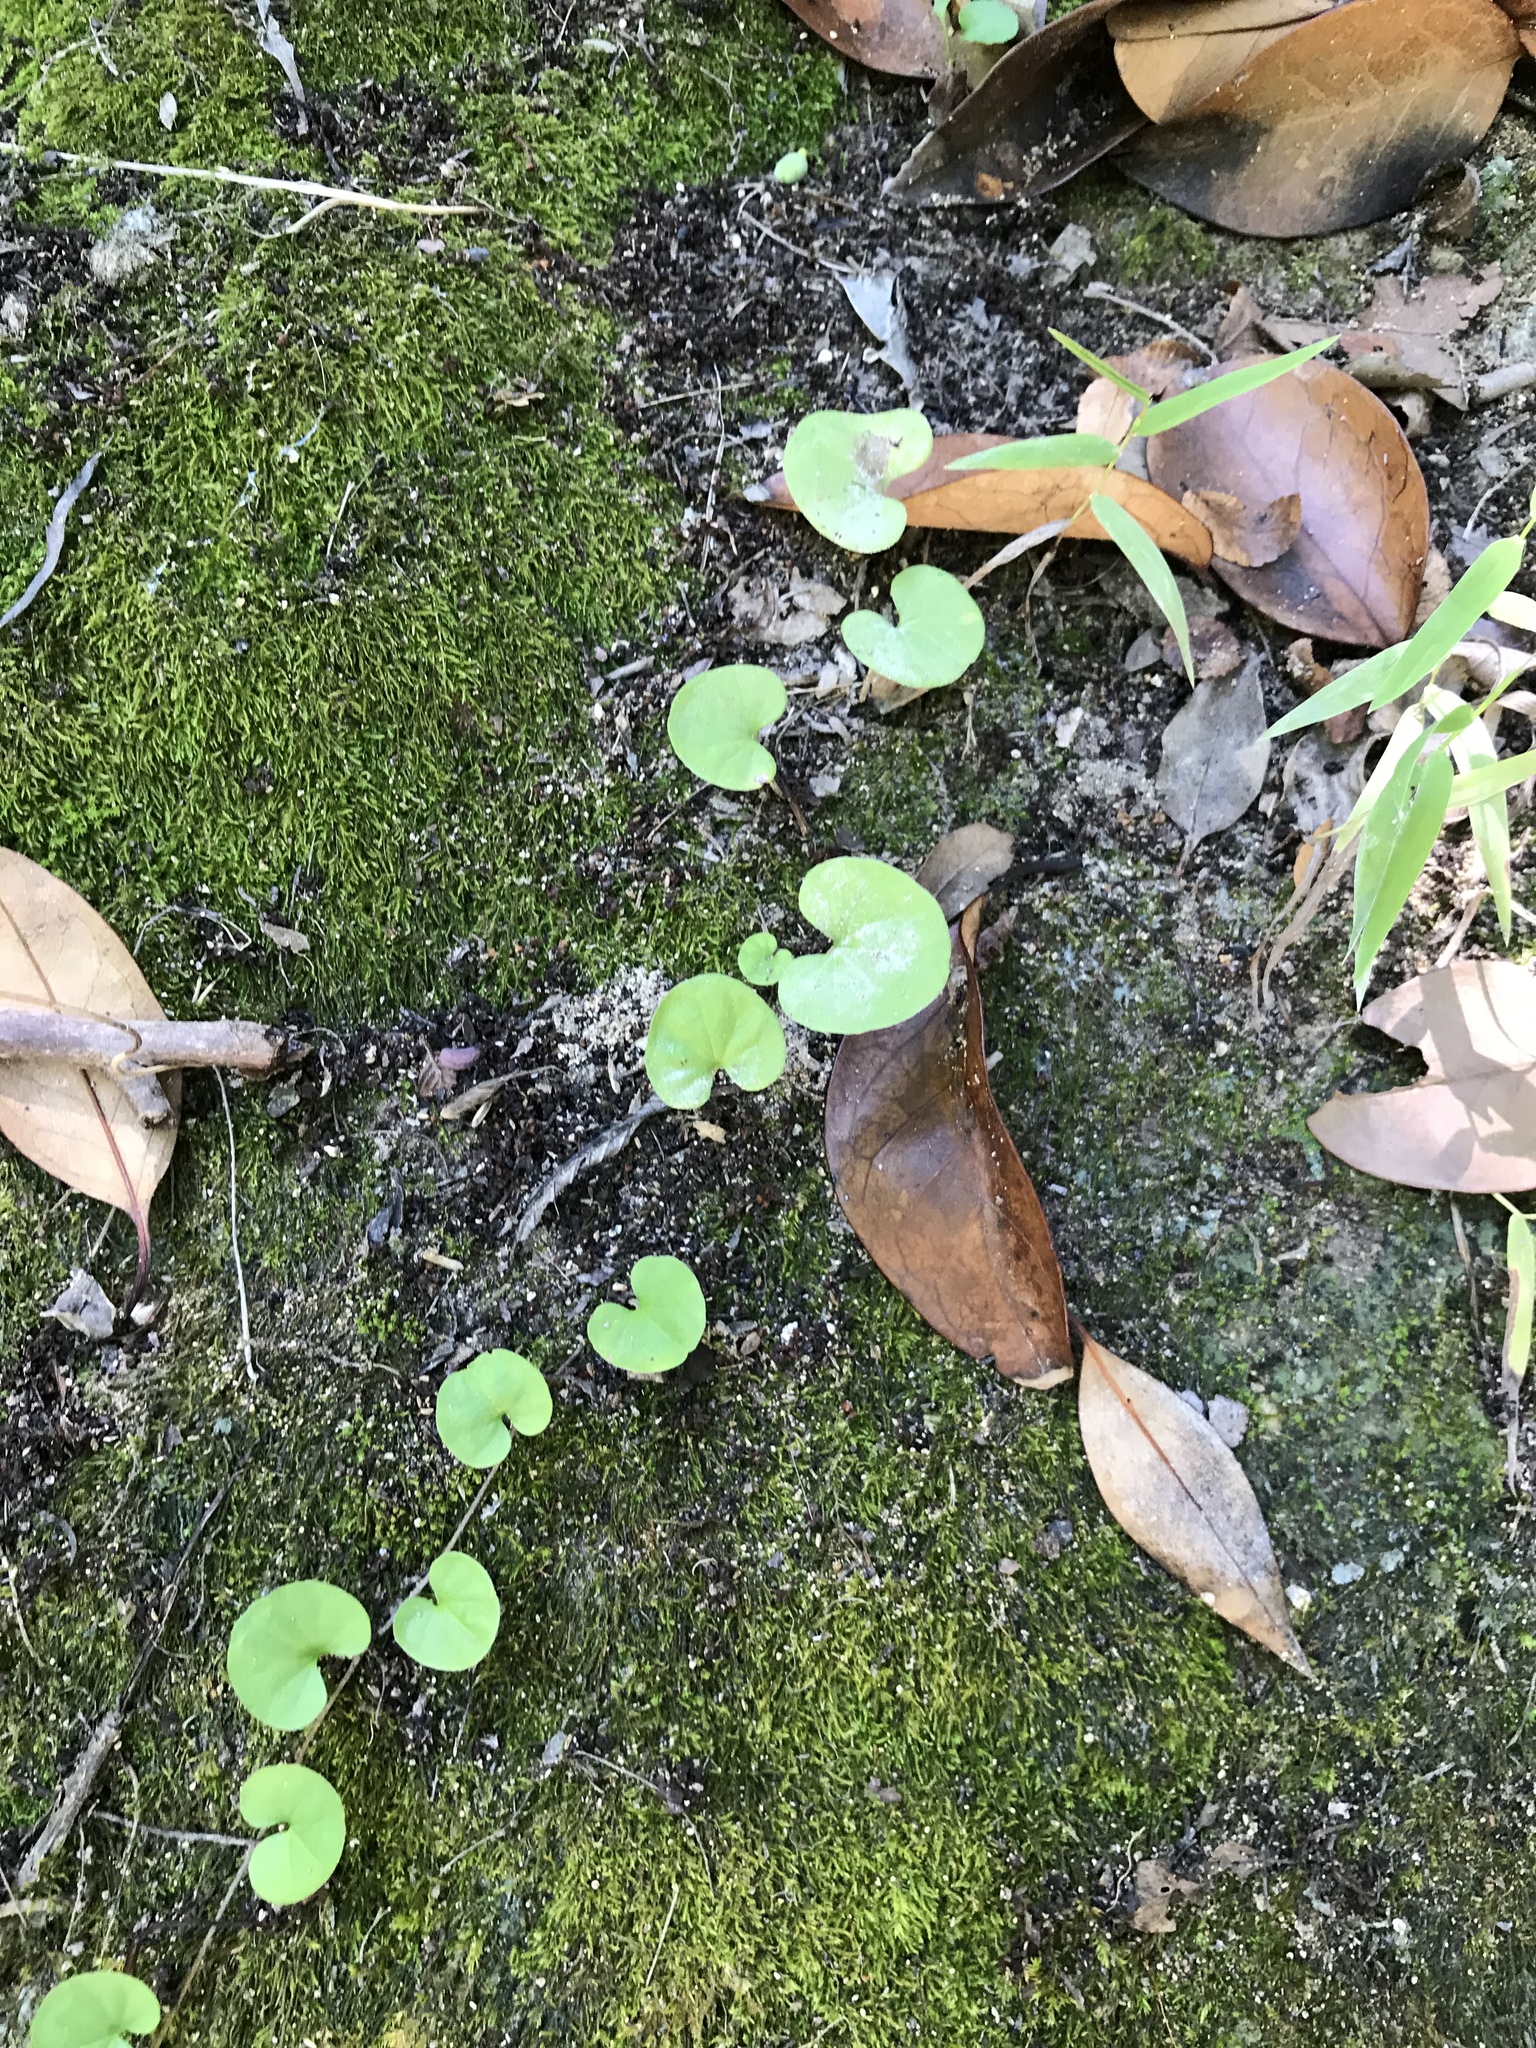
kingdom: Plantae
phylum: Tracheophyta
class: Magnoliopsida
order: Solanales
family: Convolvulaceae
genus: Dichondra
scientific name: Dichondra carolinensis
